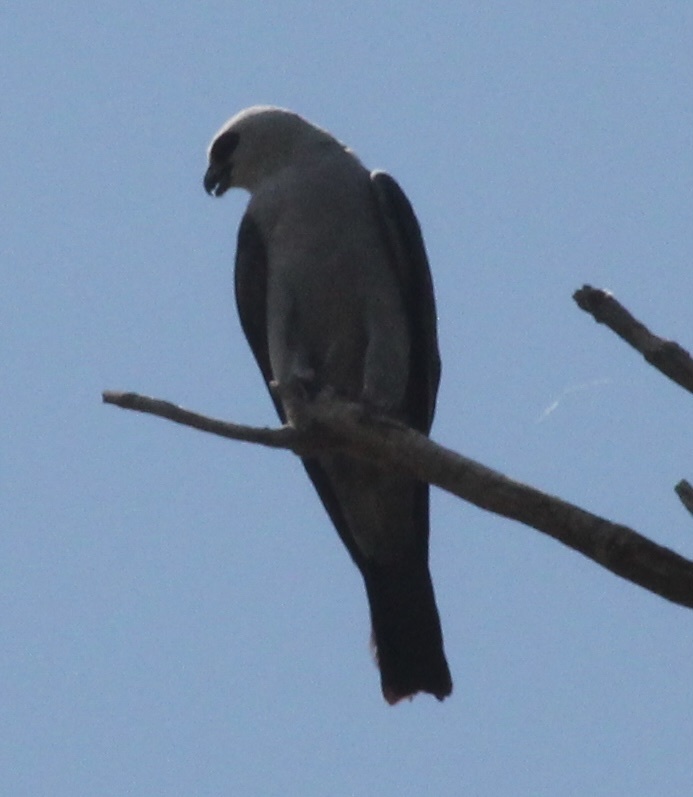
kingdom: Animalia
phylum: Chordata
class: Aves
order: Accipitriformes
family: Accipitridae
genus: Ictinia
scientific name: Ictinia mississippiensis
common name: Mississippi kite
